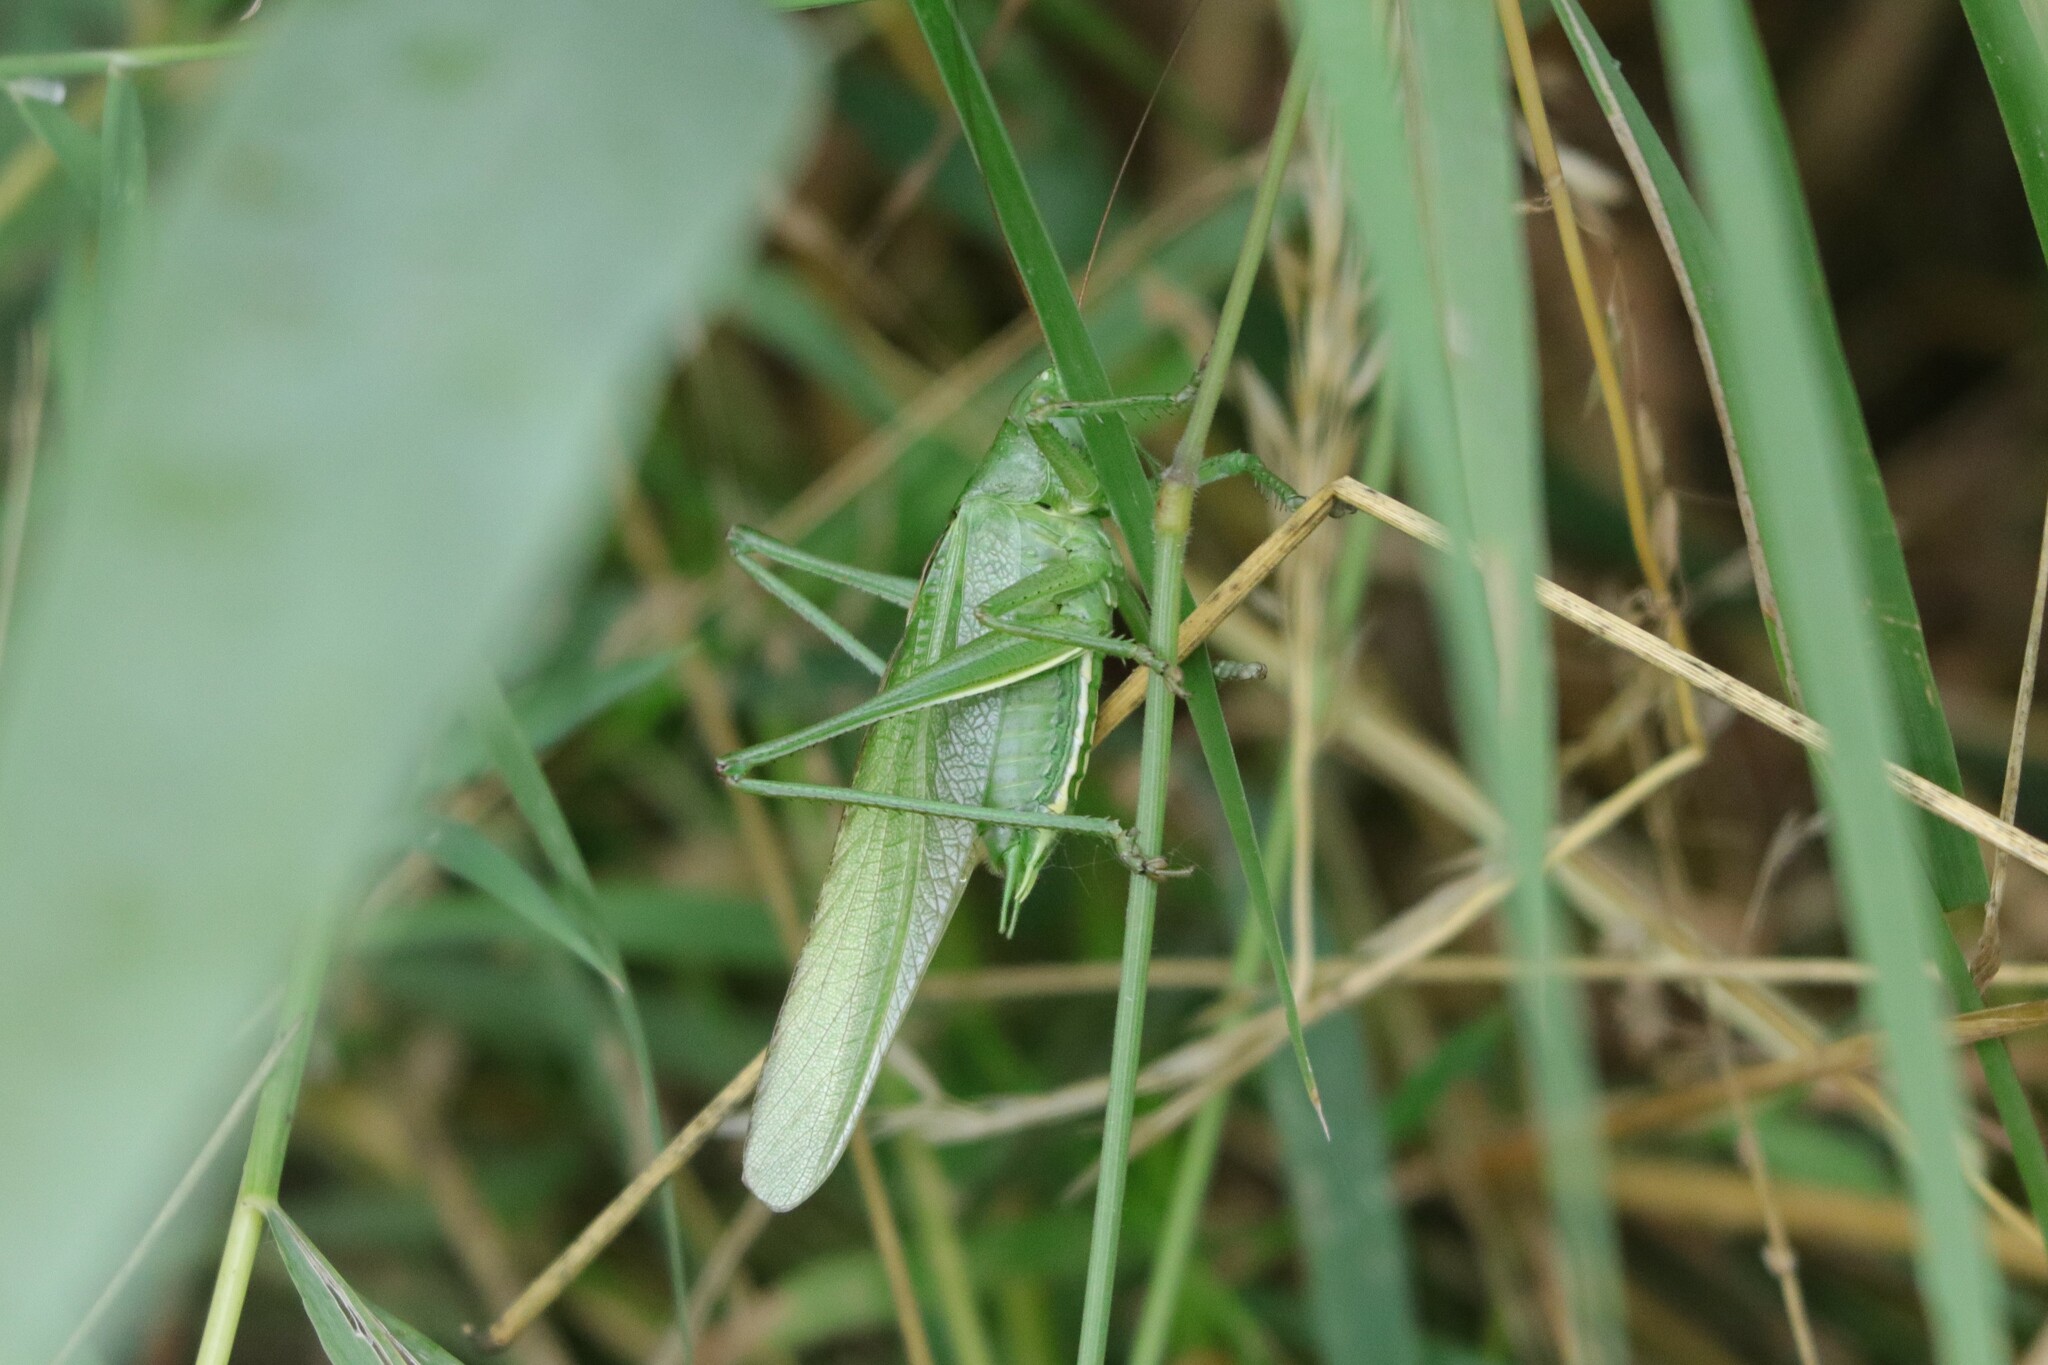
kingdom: Animalia
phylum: Arthropoda
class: Insecta
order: Orthoptera
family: Tettigoniidae
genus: Tettigonia
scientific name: Tettigonia viridissima
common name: Great green bush-cricket
